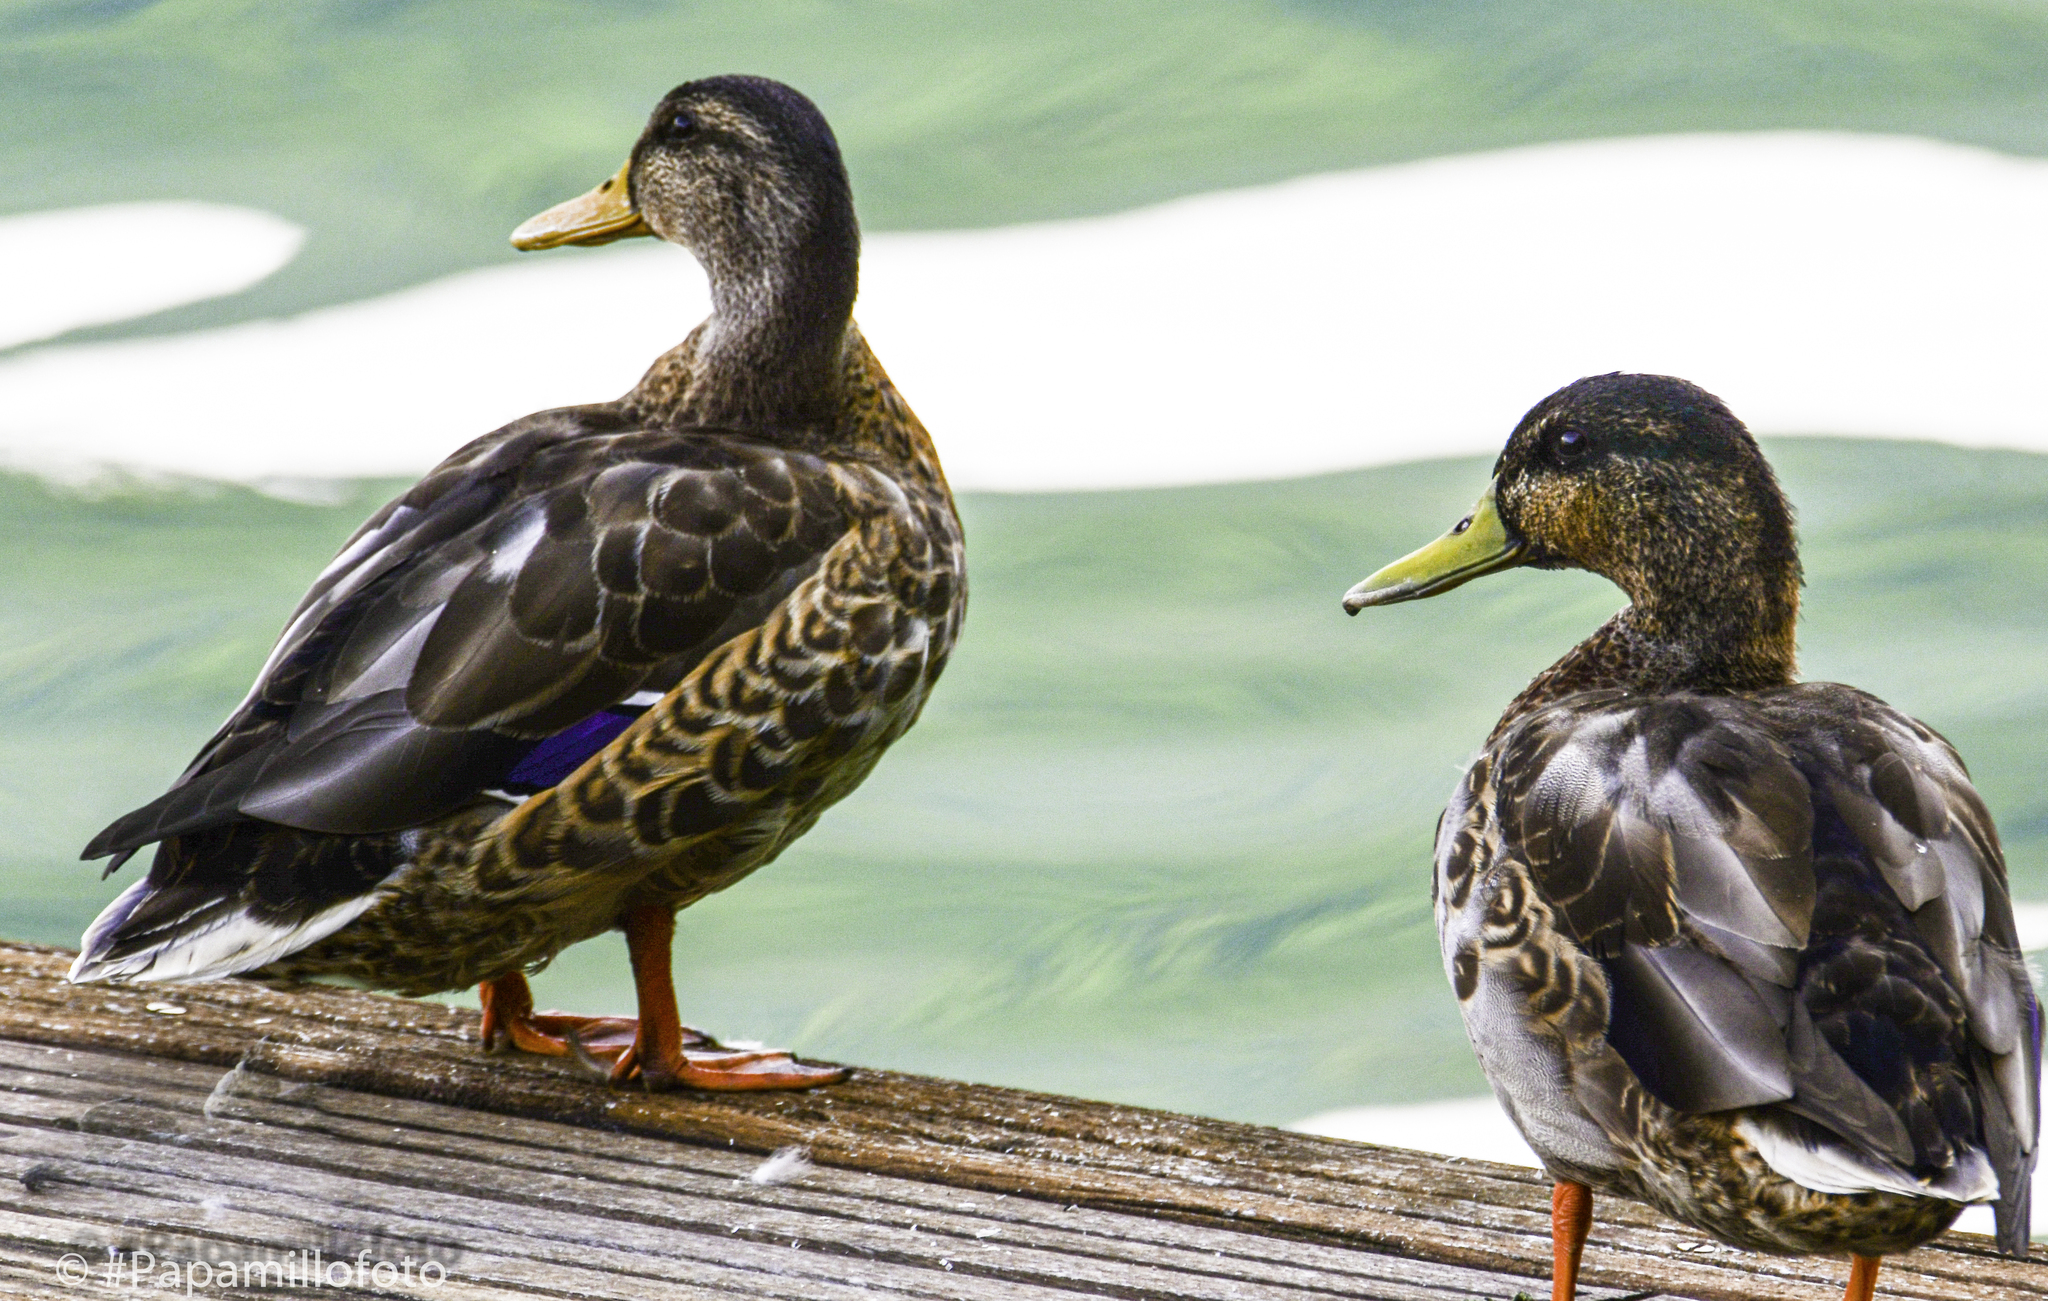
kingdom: Animalia
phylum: Chordata
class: Aves
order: Anseriformes
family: Anatidae
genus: Anas
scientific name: Anas platyrhynchos
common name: Mallard
